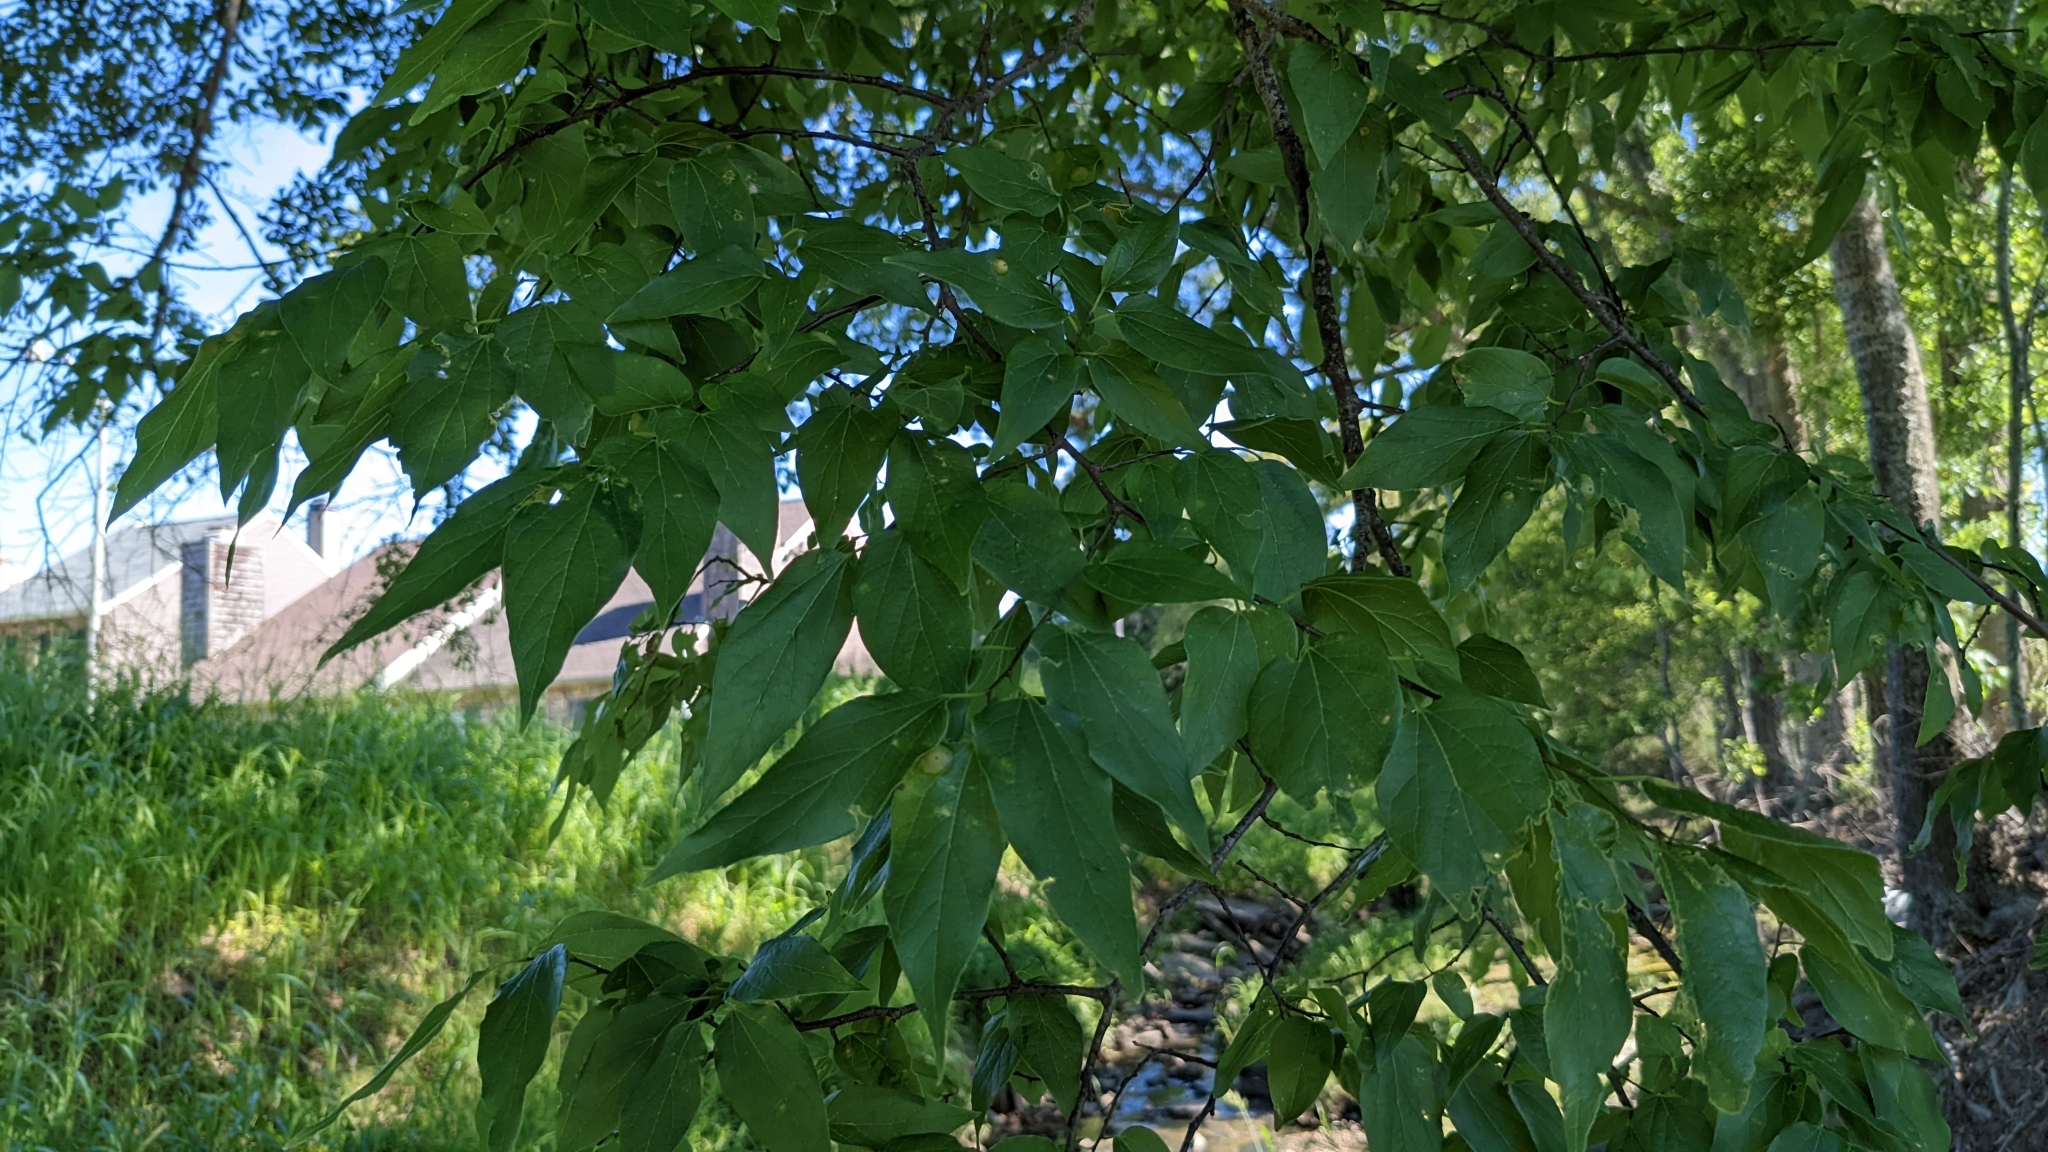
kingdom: Plantae
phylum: Tracheophyta
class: Magnoliopsida
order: Rosales
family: Cannabaceae
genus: Celtis
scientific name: Celtis laevigata
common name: Sugarberry
